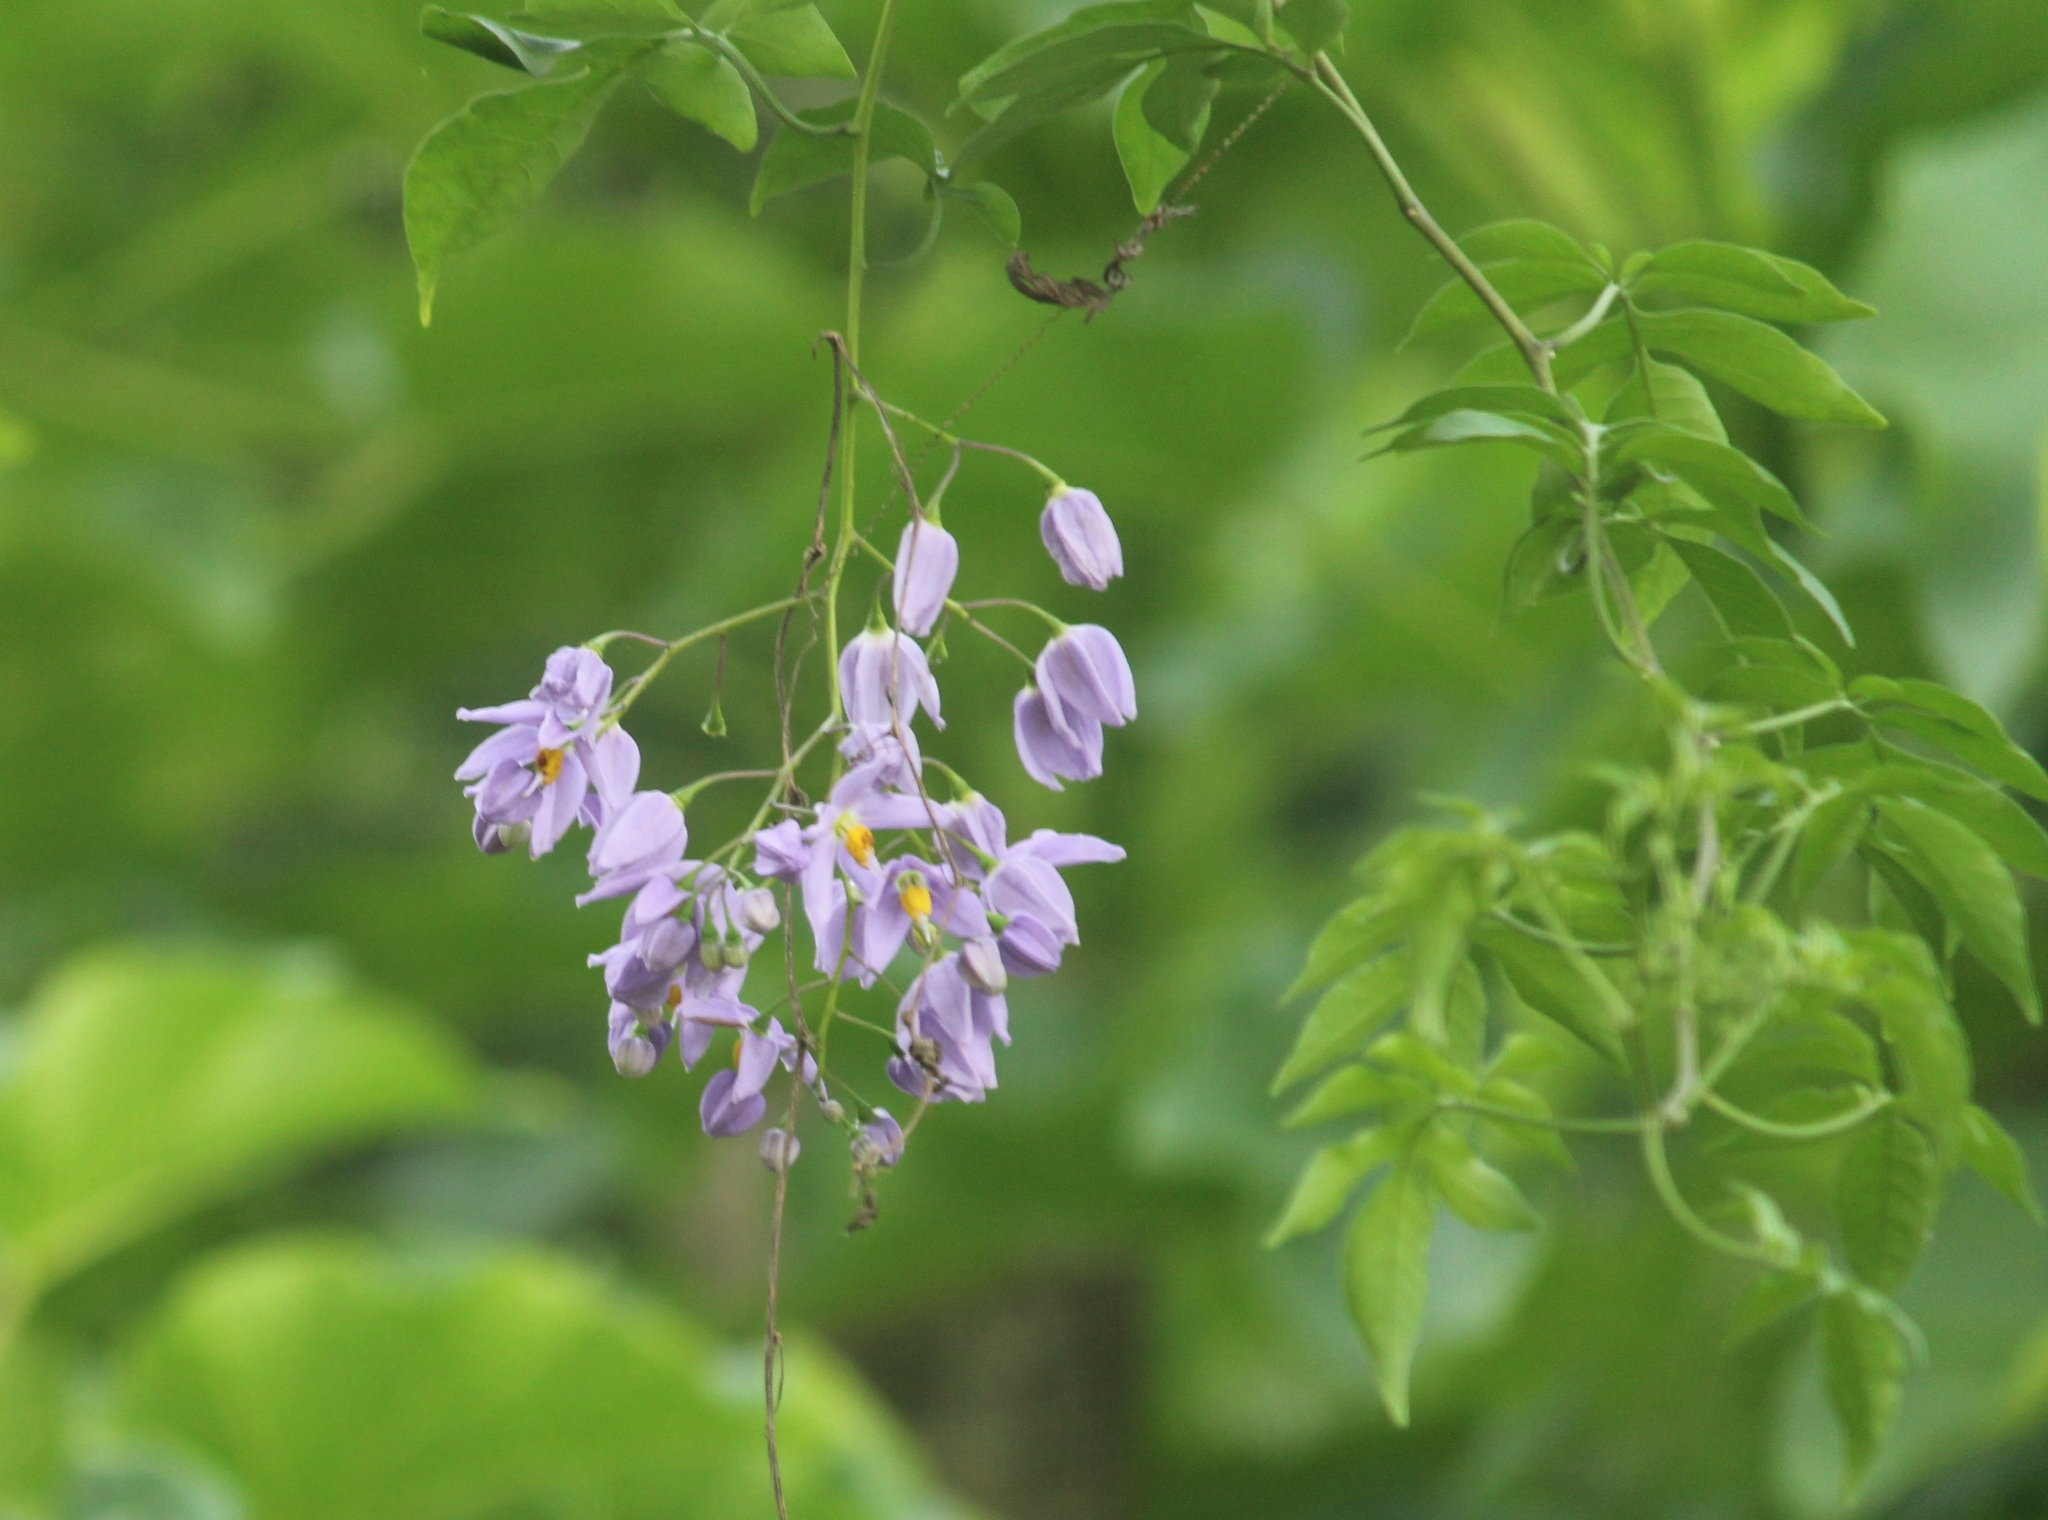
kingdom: Plantae
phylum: Tracheophyta
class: Magnoliopsida
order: Solanales
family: Solanaceae
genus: Solanum
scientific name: Solanum seaforthianum
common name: Brazilian nightshade
